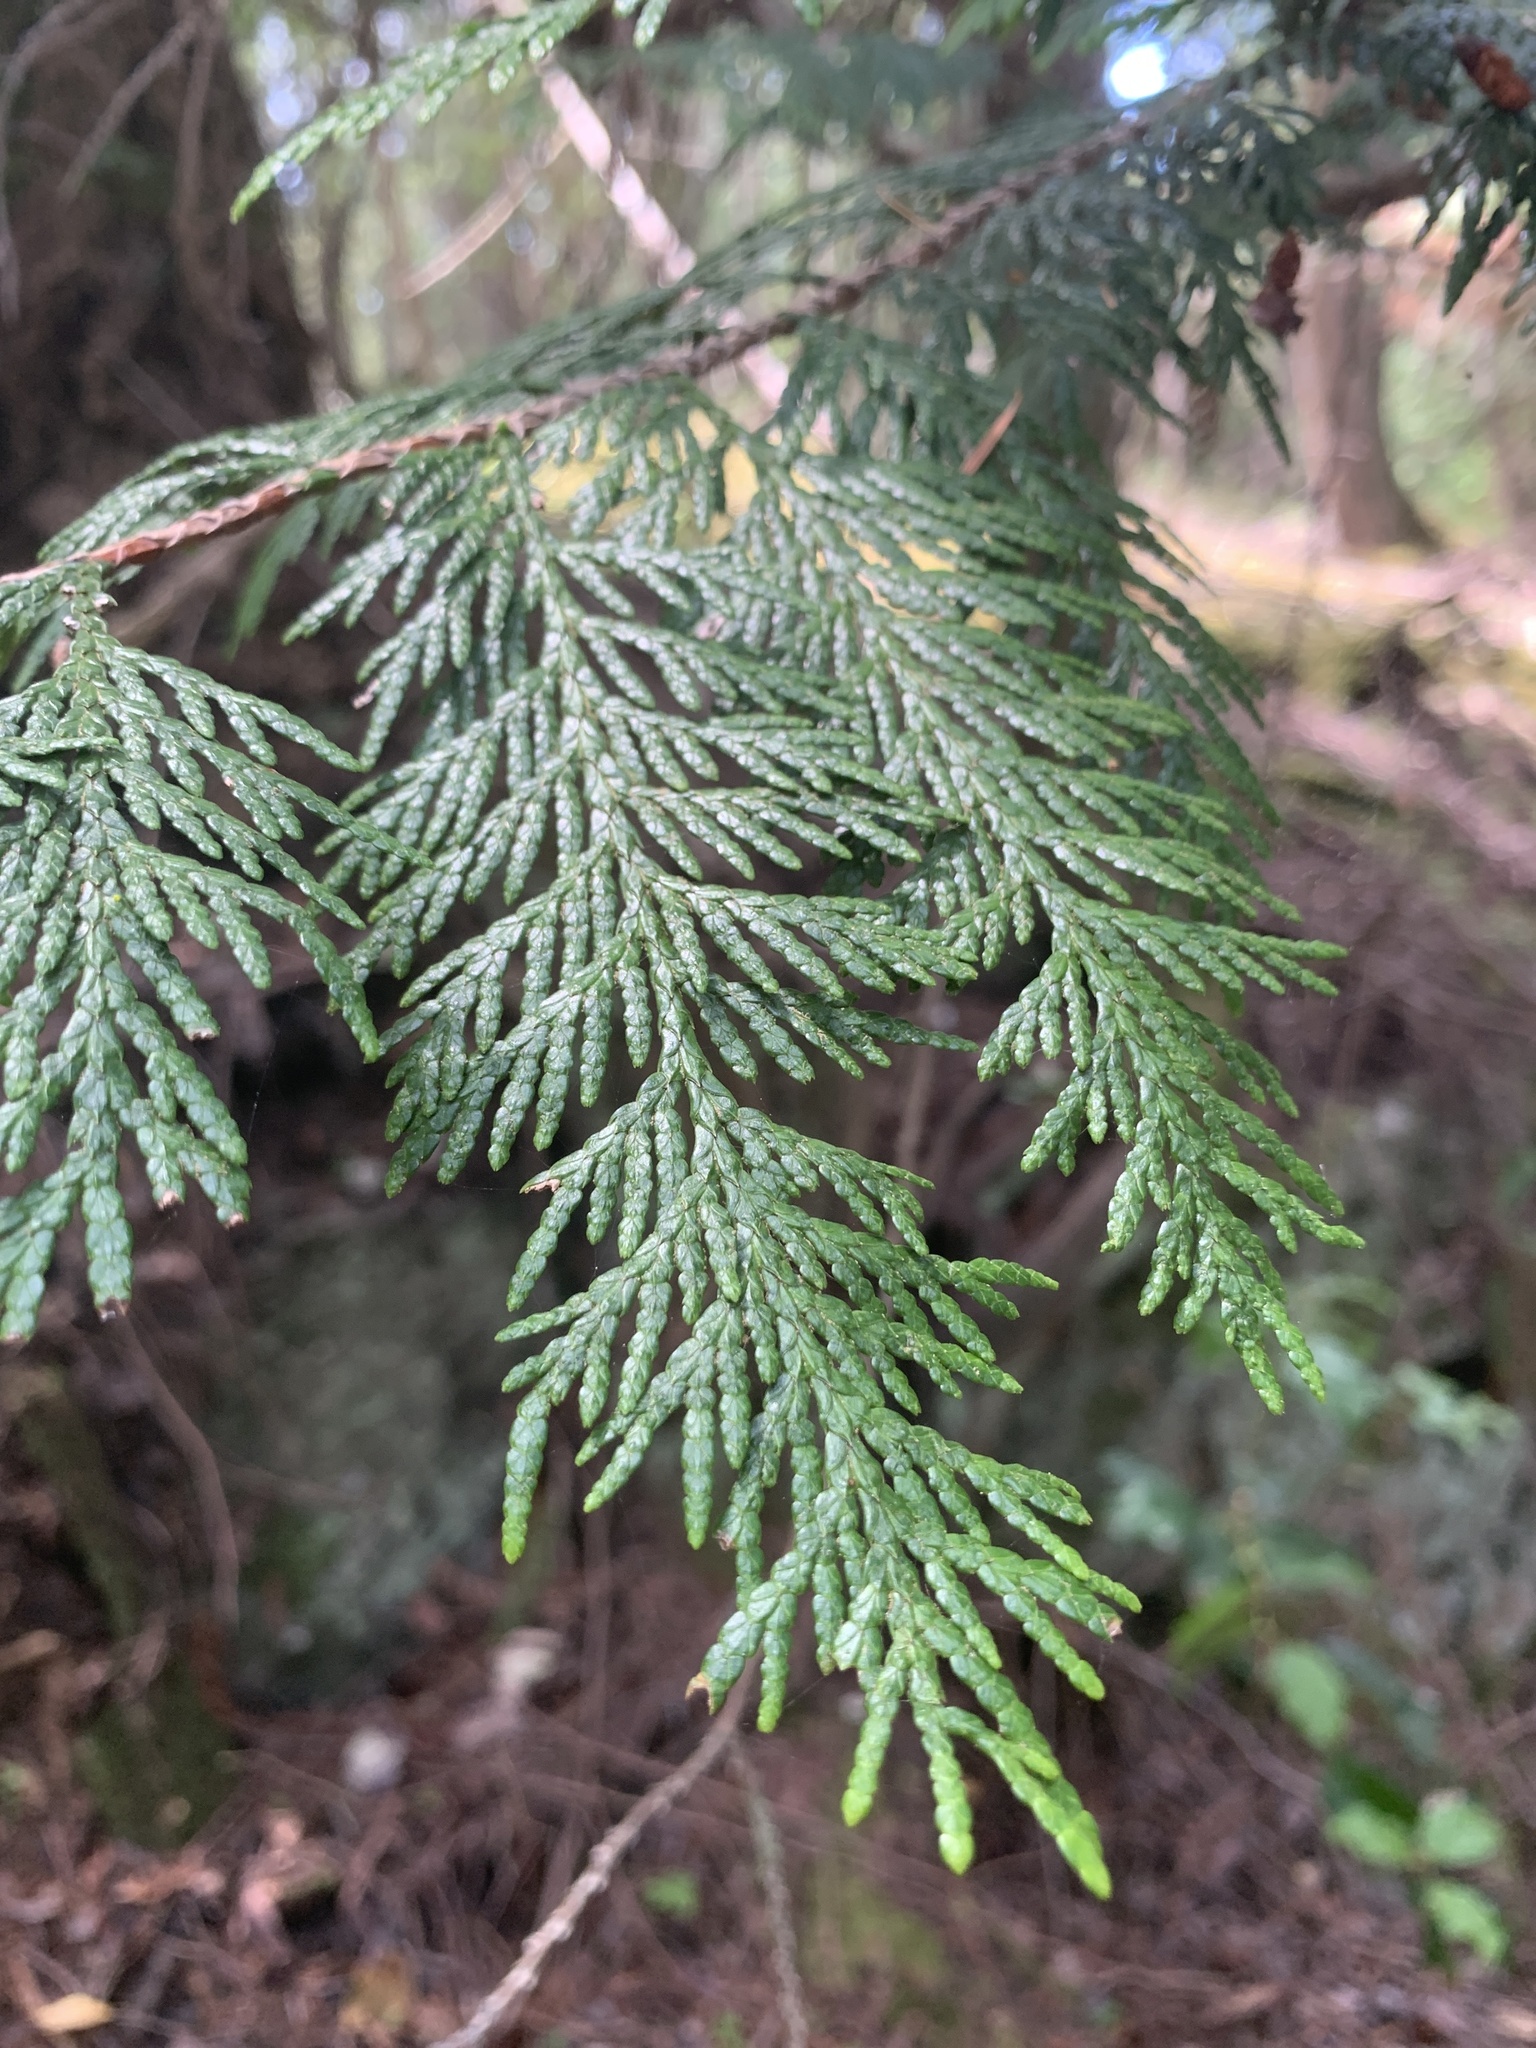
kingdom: Plantae
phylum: Tracheophyta
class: Pinopsida
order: Pinales
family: Cupressaceae
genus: Thuja
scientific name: Thuja plicata
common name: Western red-cedar
